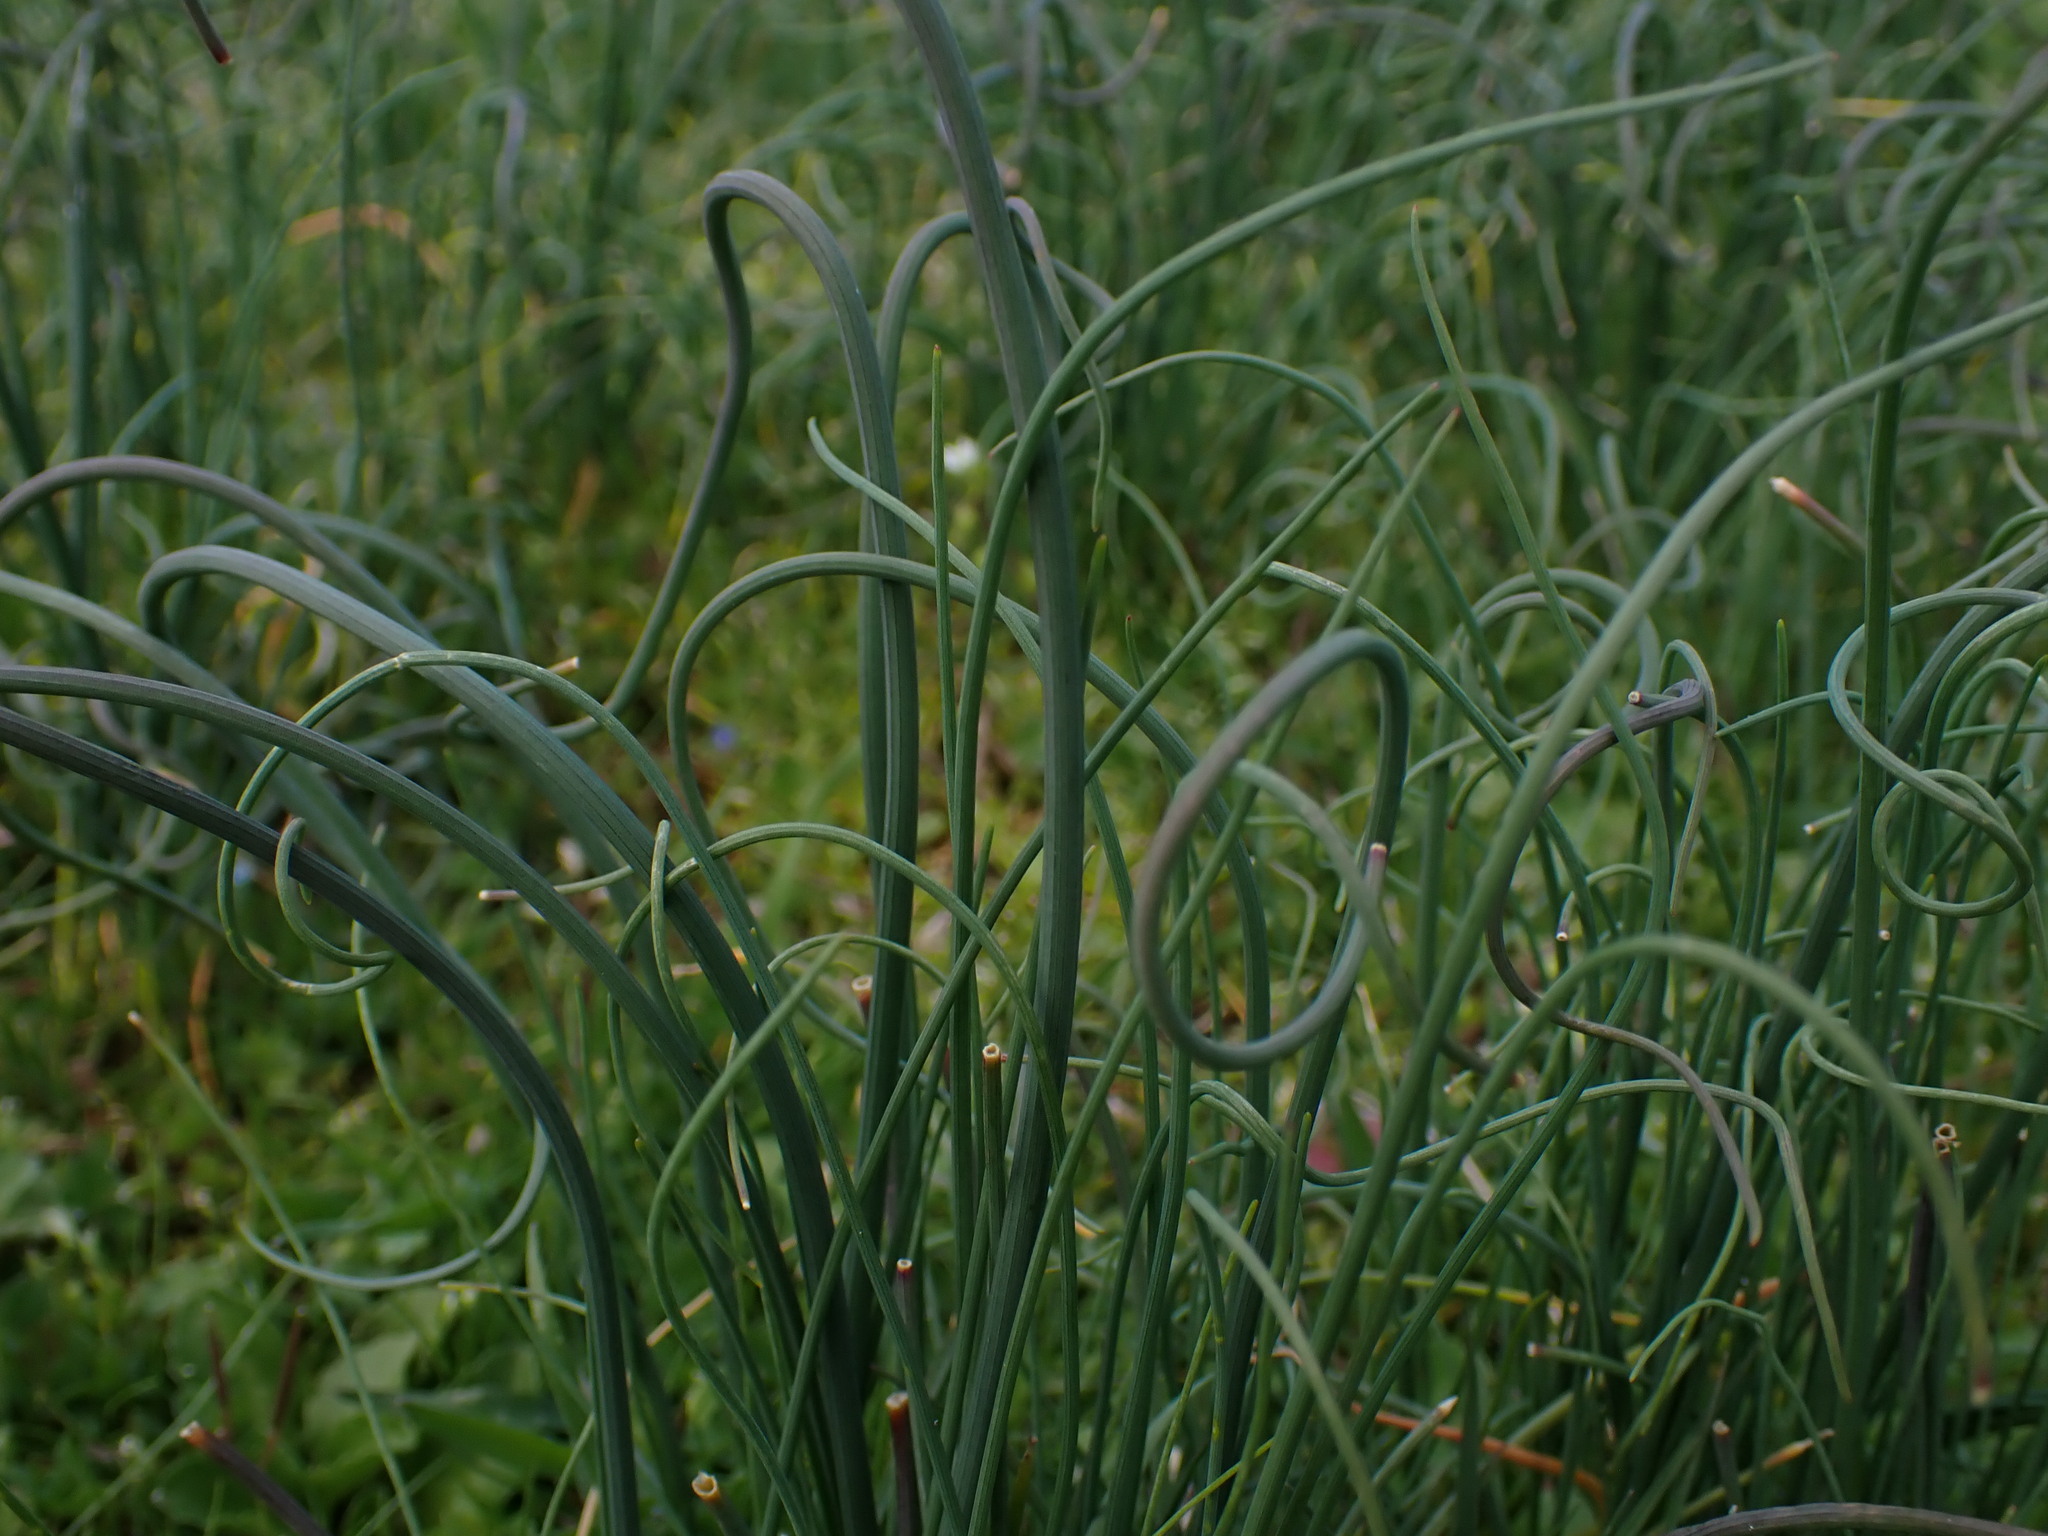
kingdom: Plantae
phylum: Tracheophyta
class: Liliopsida
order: Asparagales
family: Amaryllidaceae
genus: Allium
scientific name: Allium vineale
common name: Crow garlic
